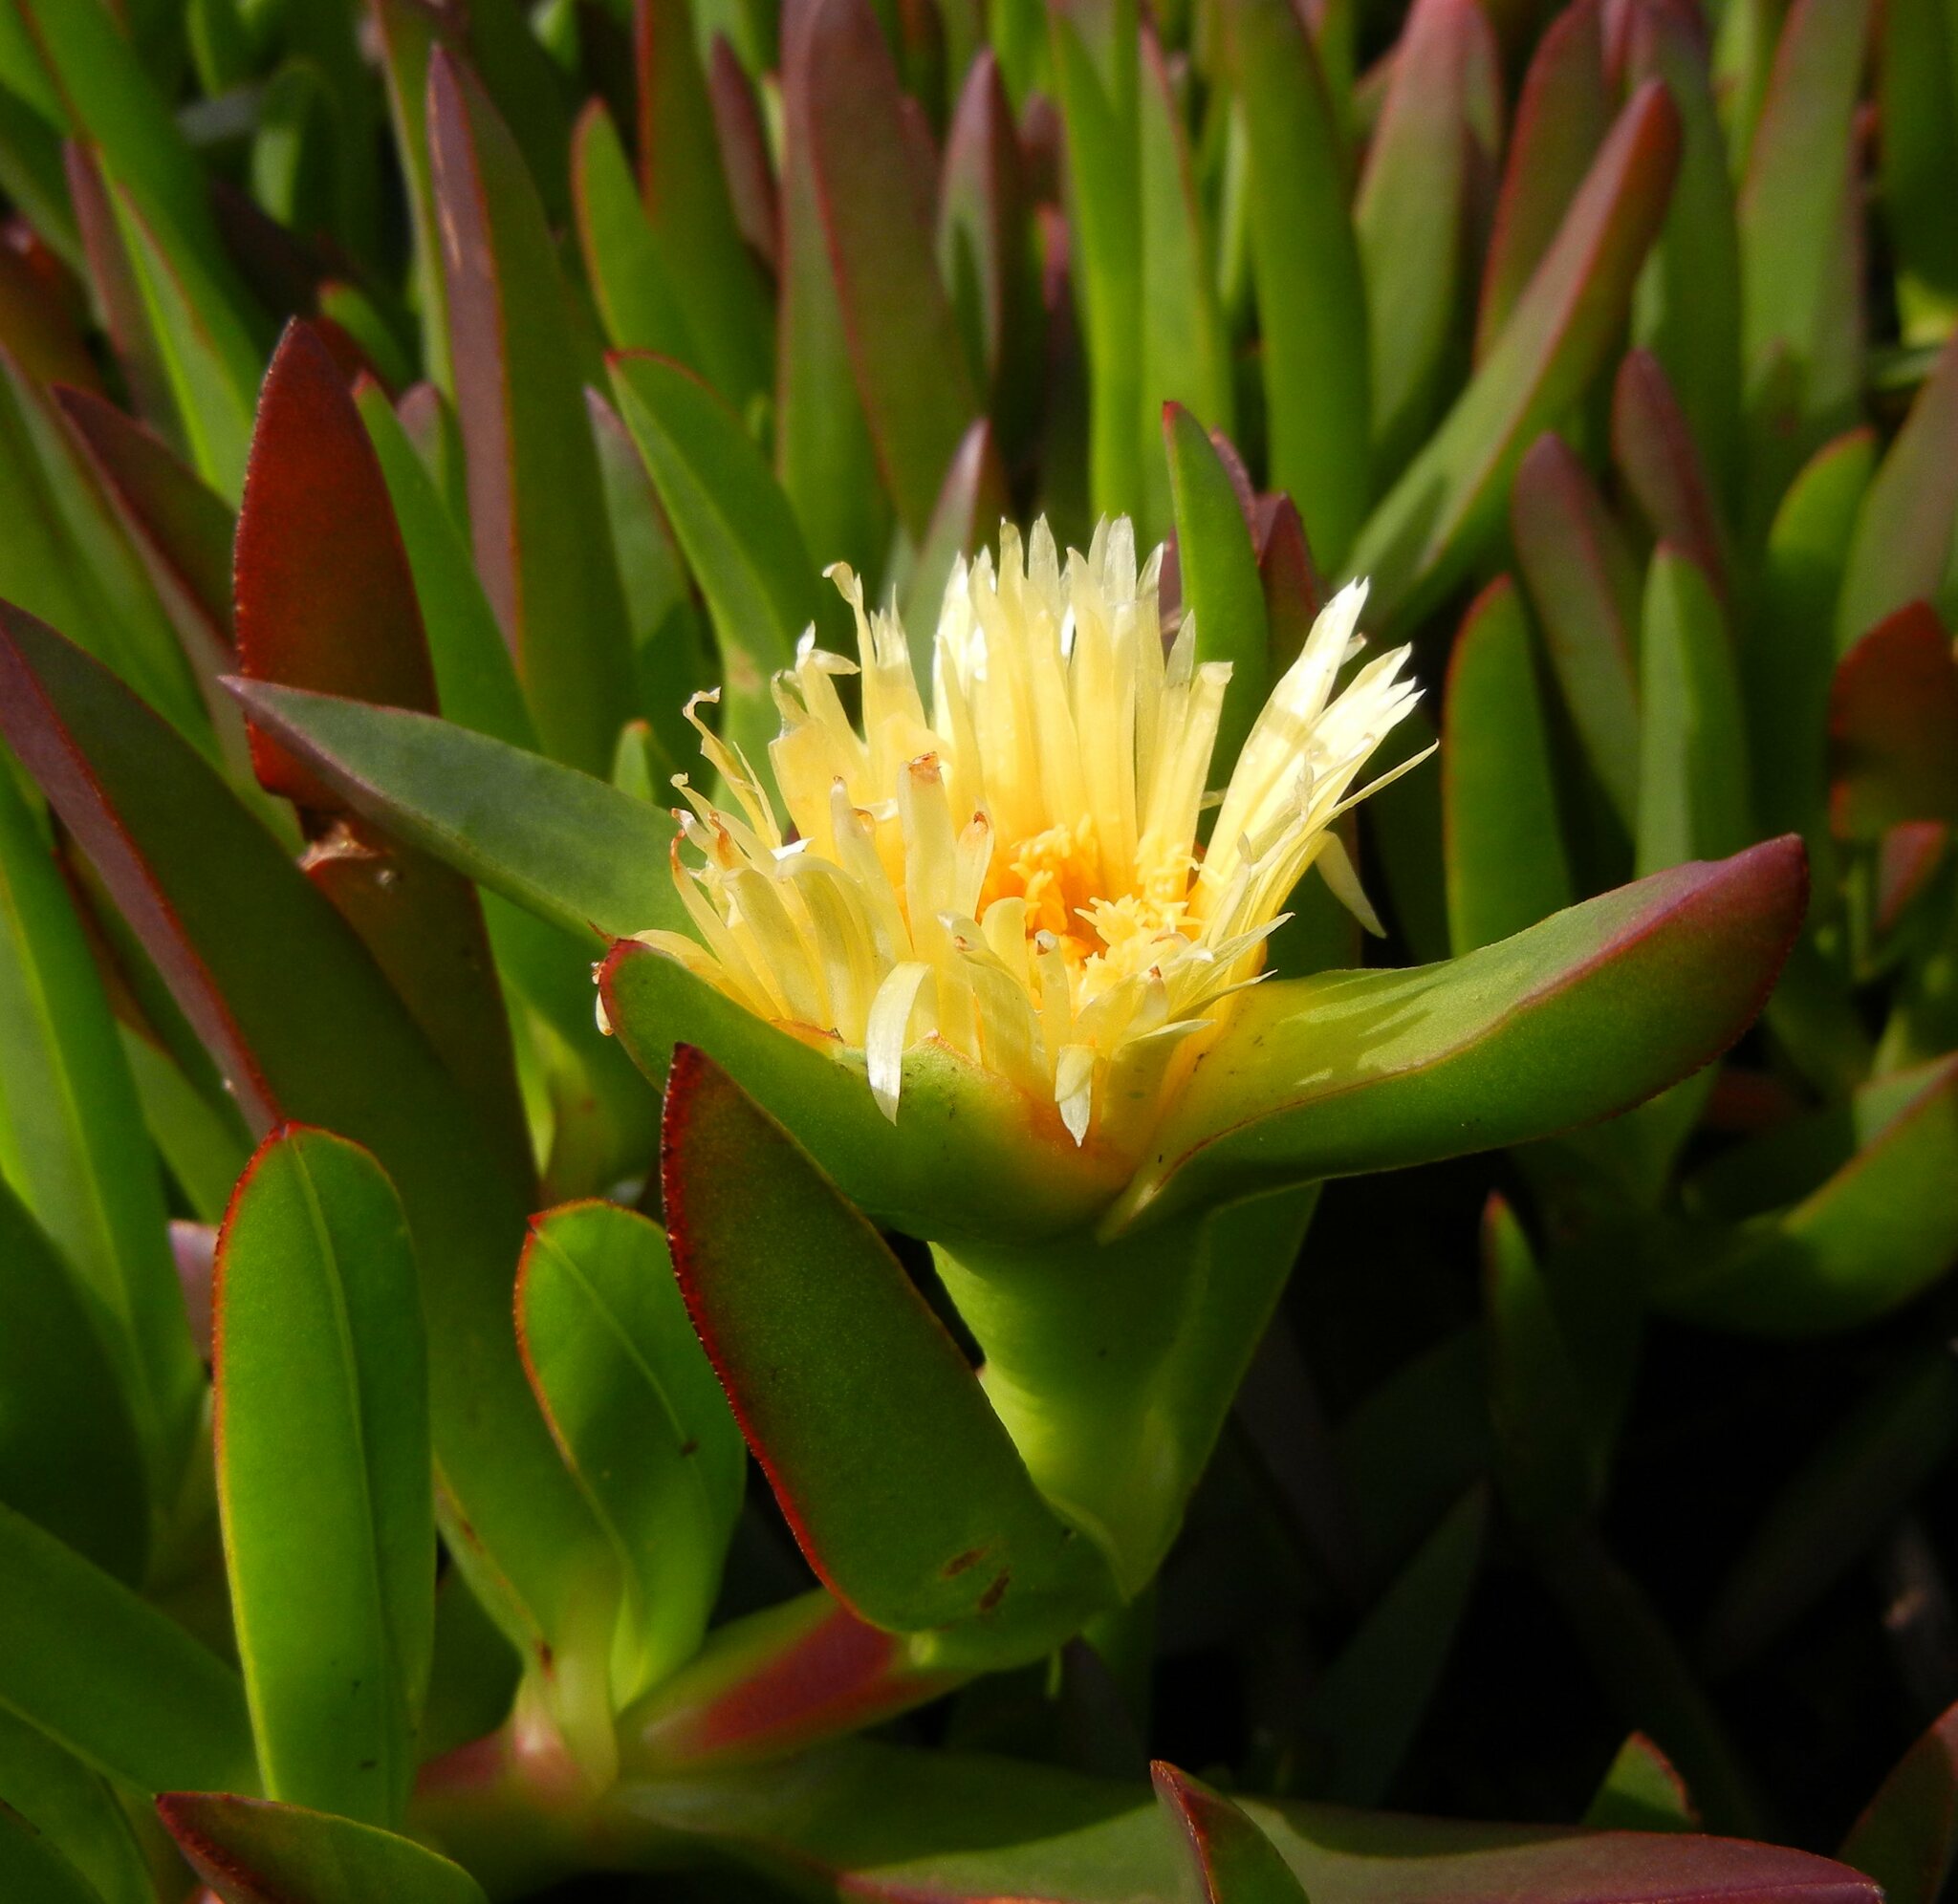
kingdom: Plantae
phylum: Tracheophyta
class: Magnoliopsida
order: Caryophyllales
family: Aizoaceae
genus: Carpobrotus
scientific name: Carpobrotus edulis
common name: Hottentot-fig
